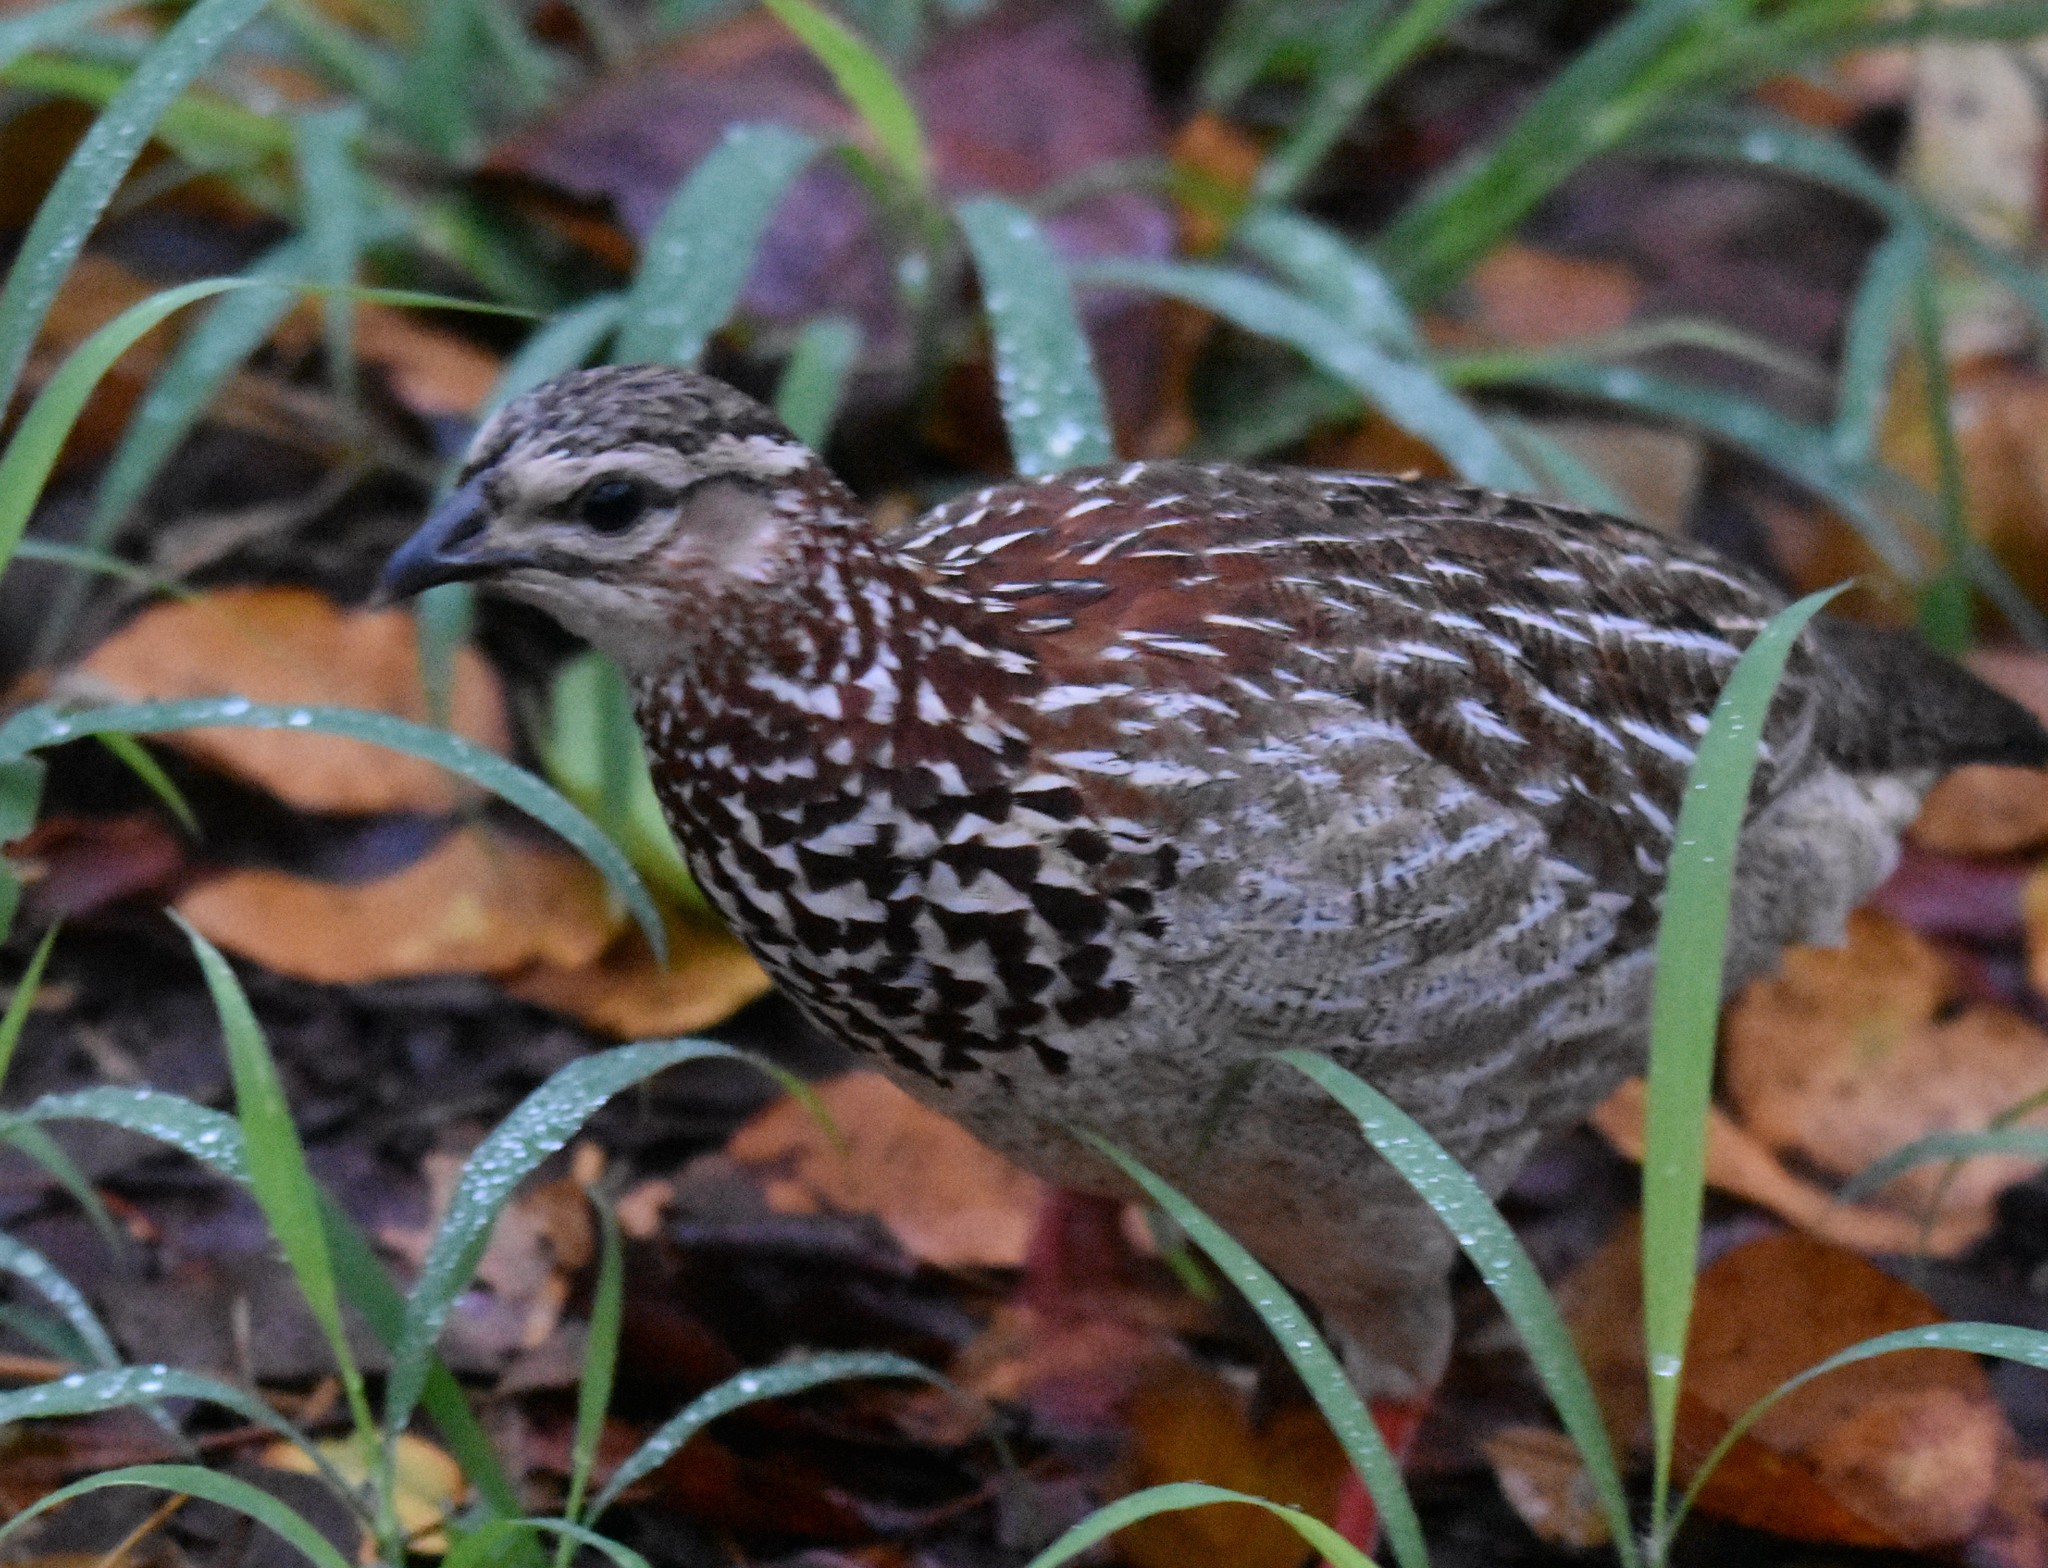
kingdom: Animalia
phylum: Chordata
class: Aves
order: Galliformes
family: Phasianidae
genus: Ortygornis
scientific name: Ortygornis sephaena
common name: Crested francolin
